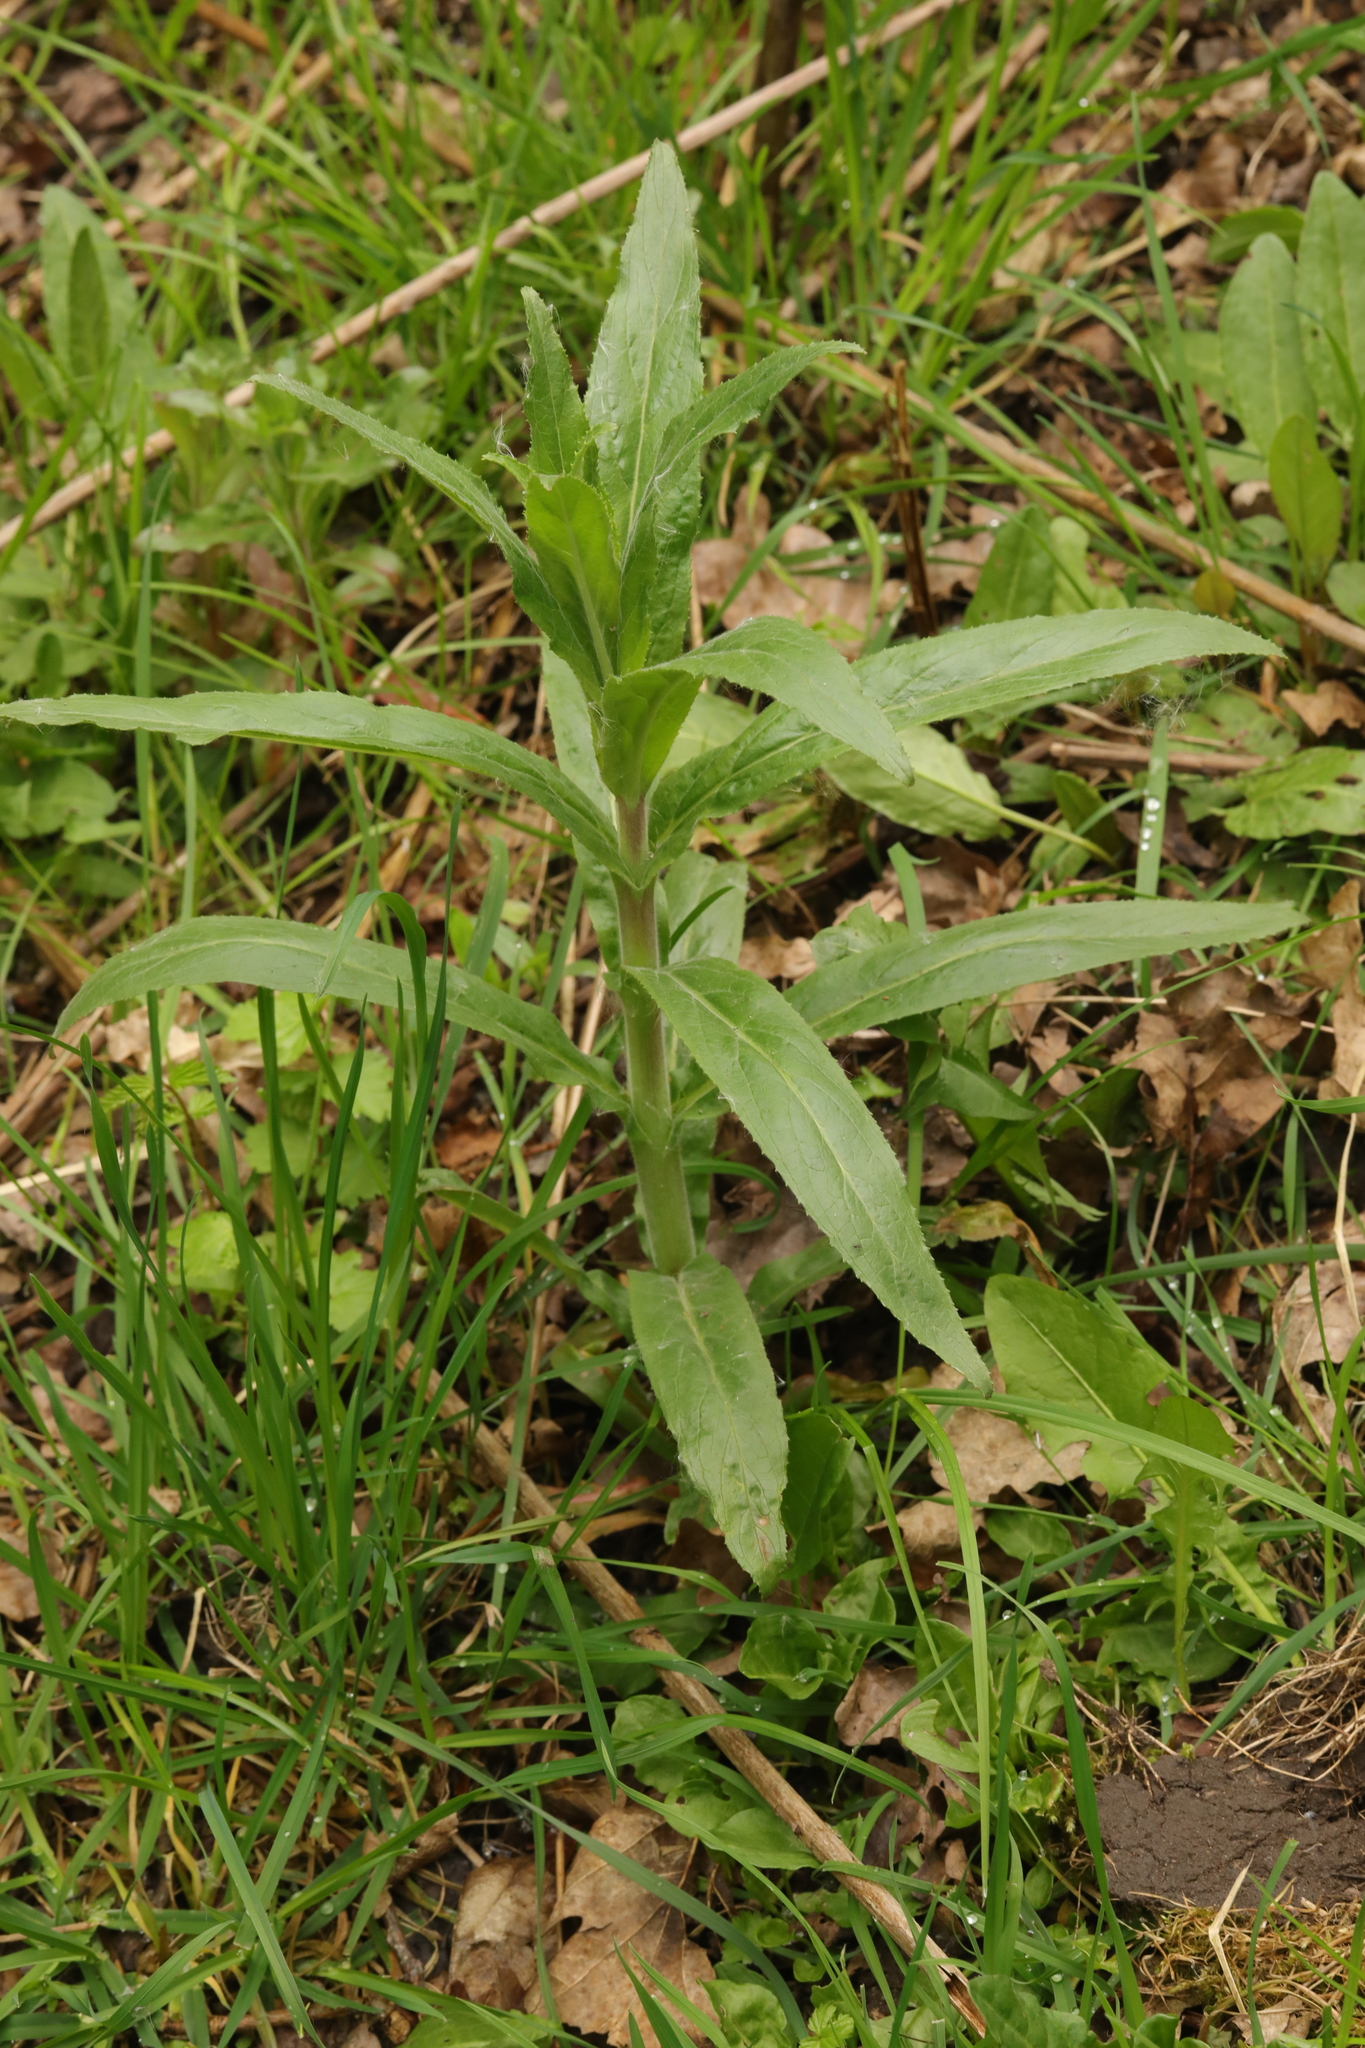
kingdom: Plantae
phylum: Tracheophyta
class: Magnoliopsida
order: Myrtales
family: Onagraceae
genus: Epilobium
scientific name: Epilobium hirsutum
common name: Great willowherb
